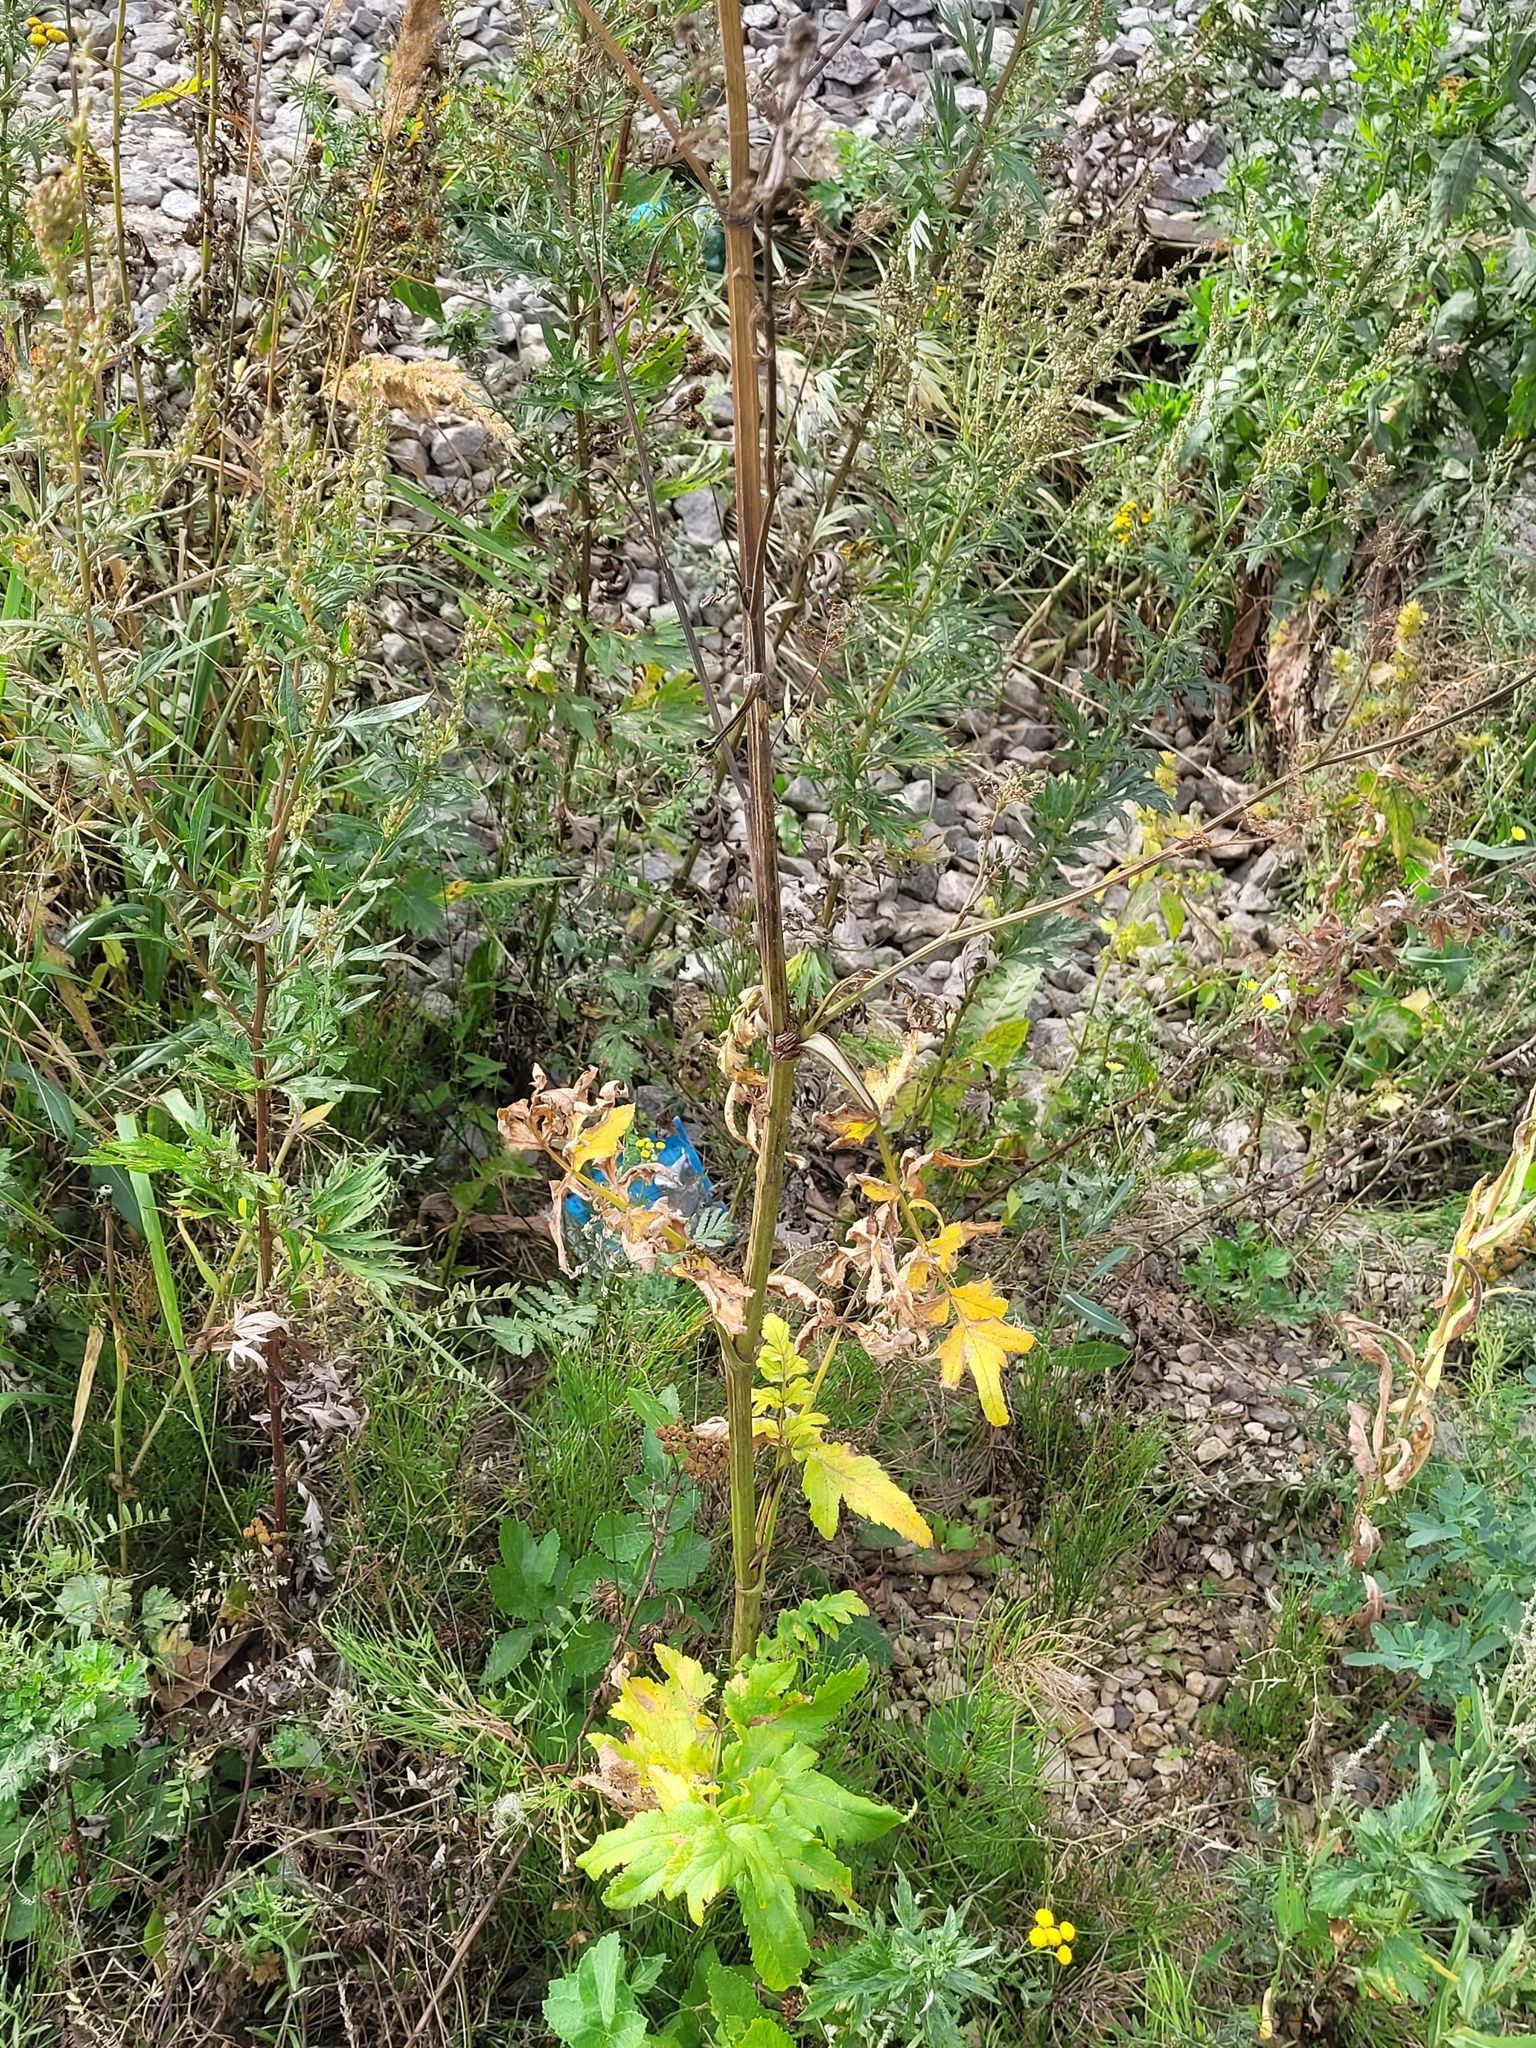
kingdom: Plantae
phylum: Tracheophyta
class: Magnoliopsida
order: Apiales
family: Apiaceae
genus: Pastinaca
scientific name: Pastinaca sativa
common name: Wild parsnip
